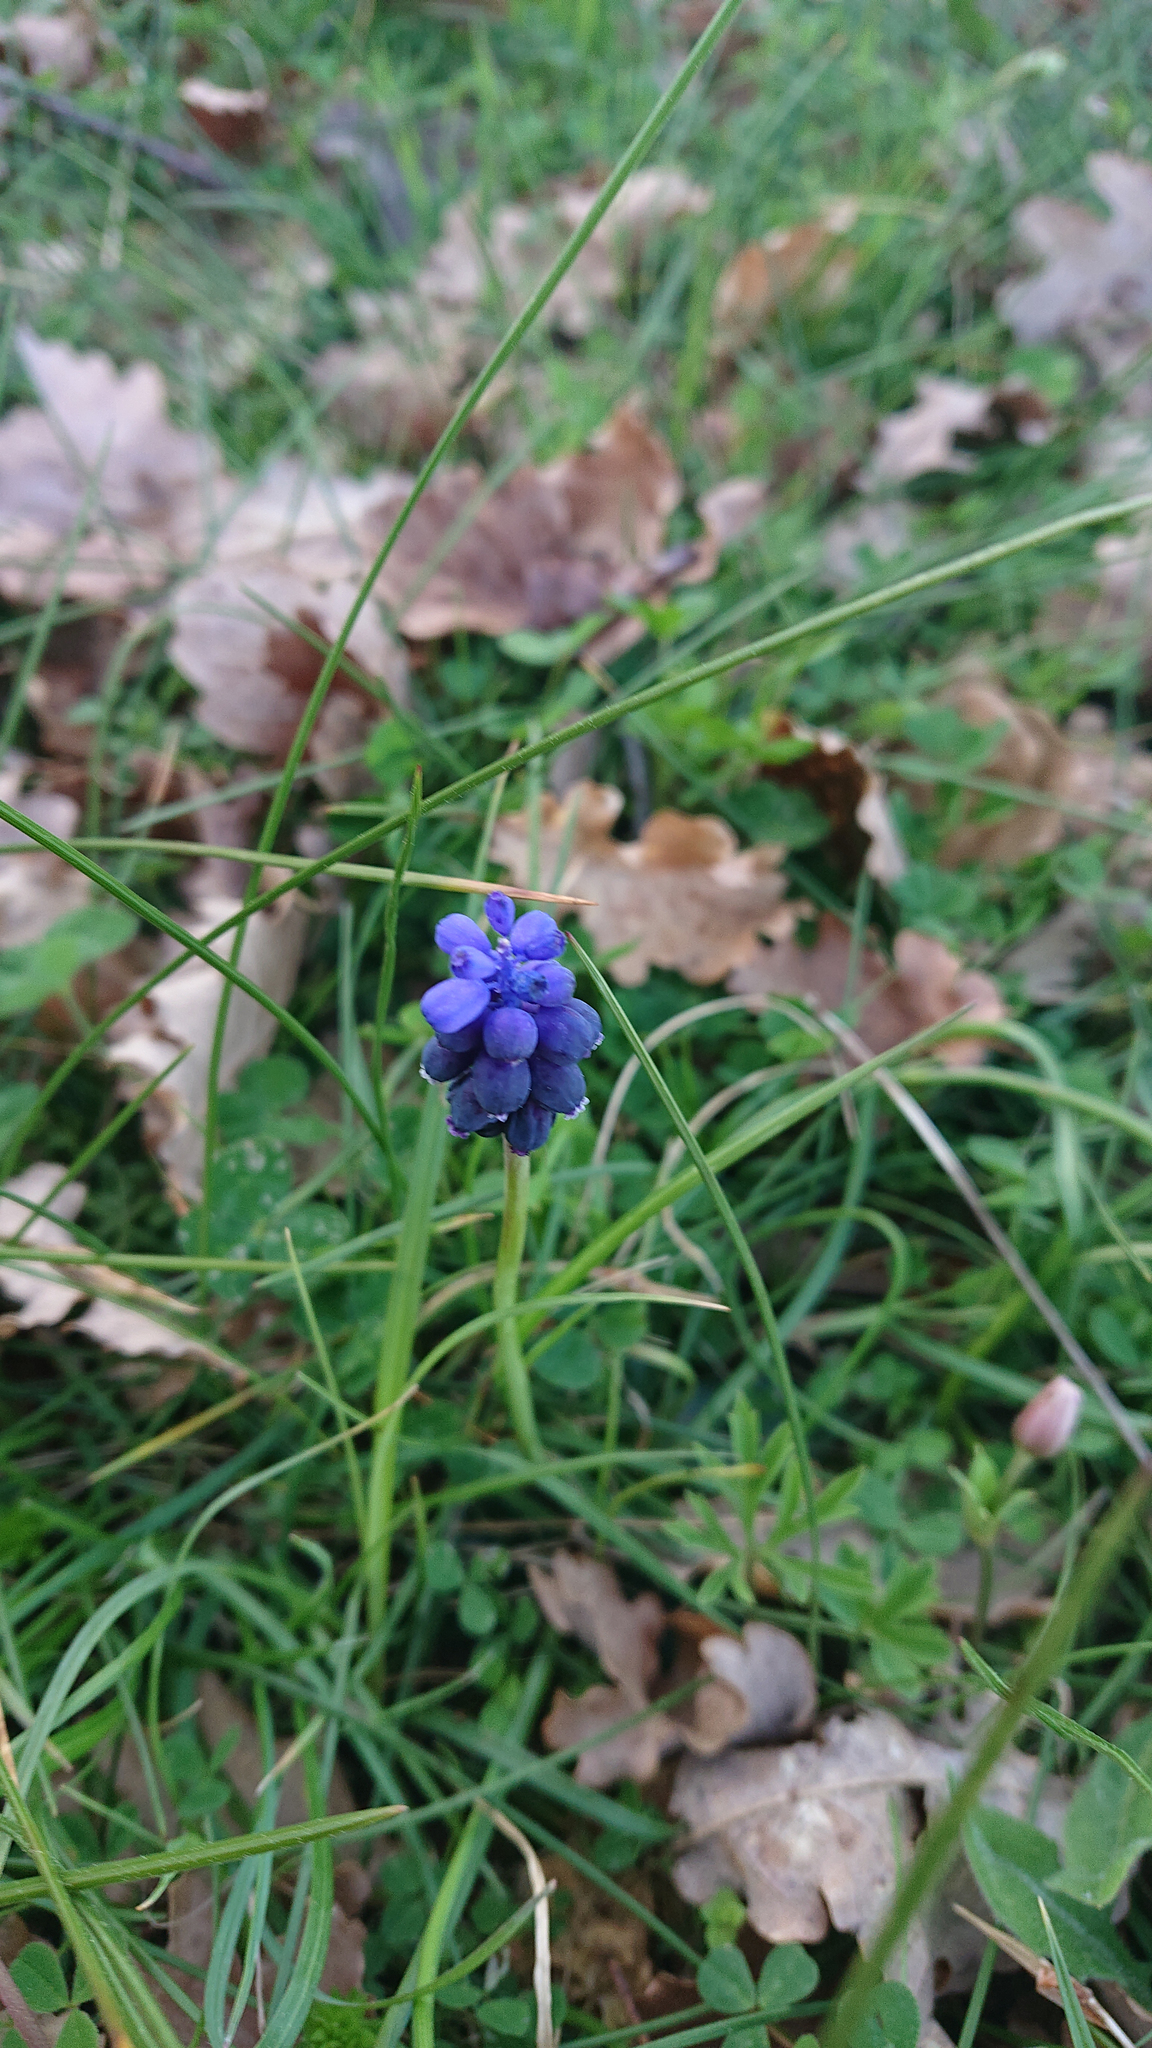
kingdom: Plantae
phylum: Tracheophyta
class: Liliopsida
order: Asparagales
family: Asparagaceae
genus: Muscari
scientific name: Muscari neglectum
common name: Grape-hyacinth
